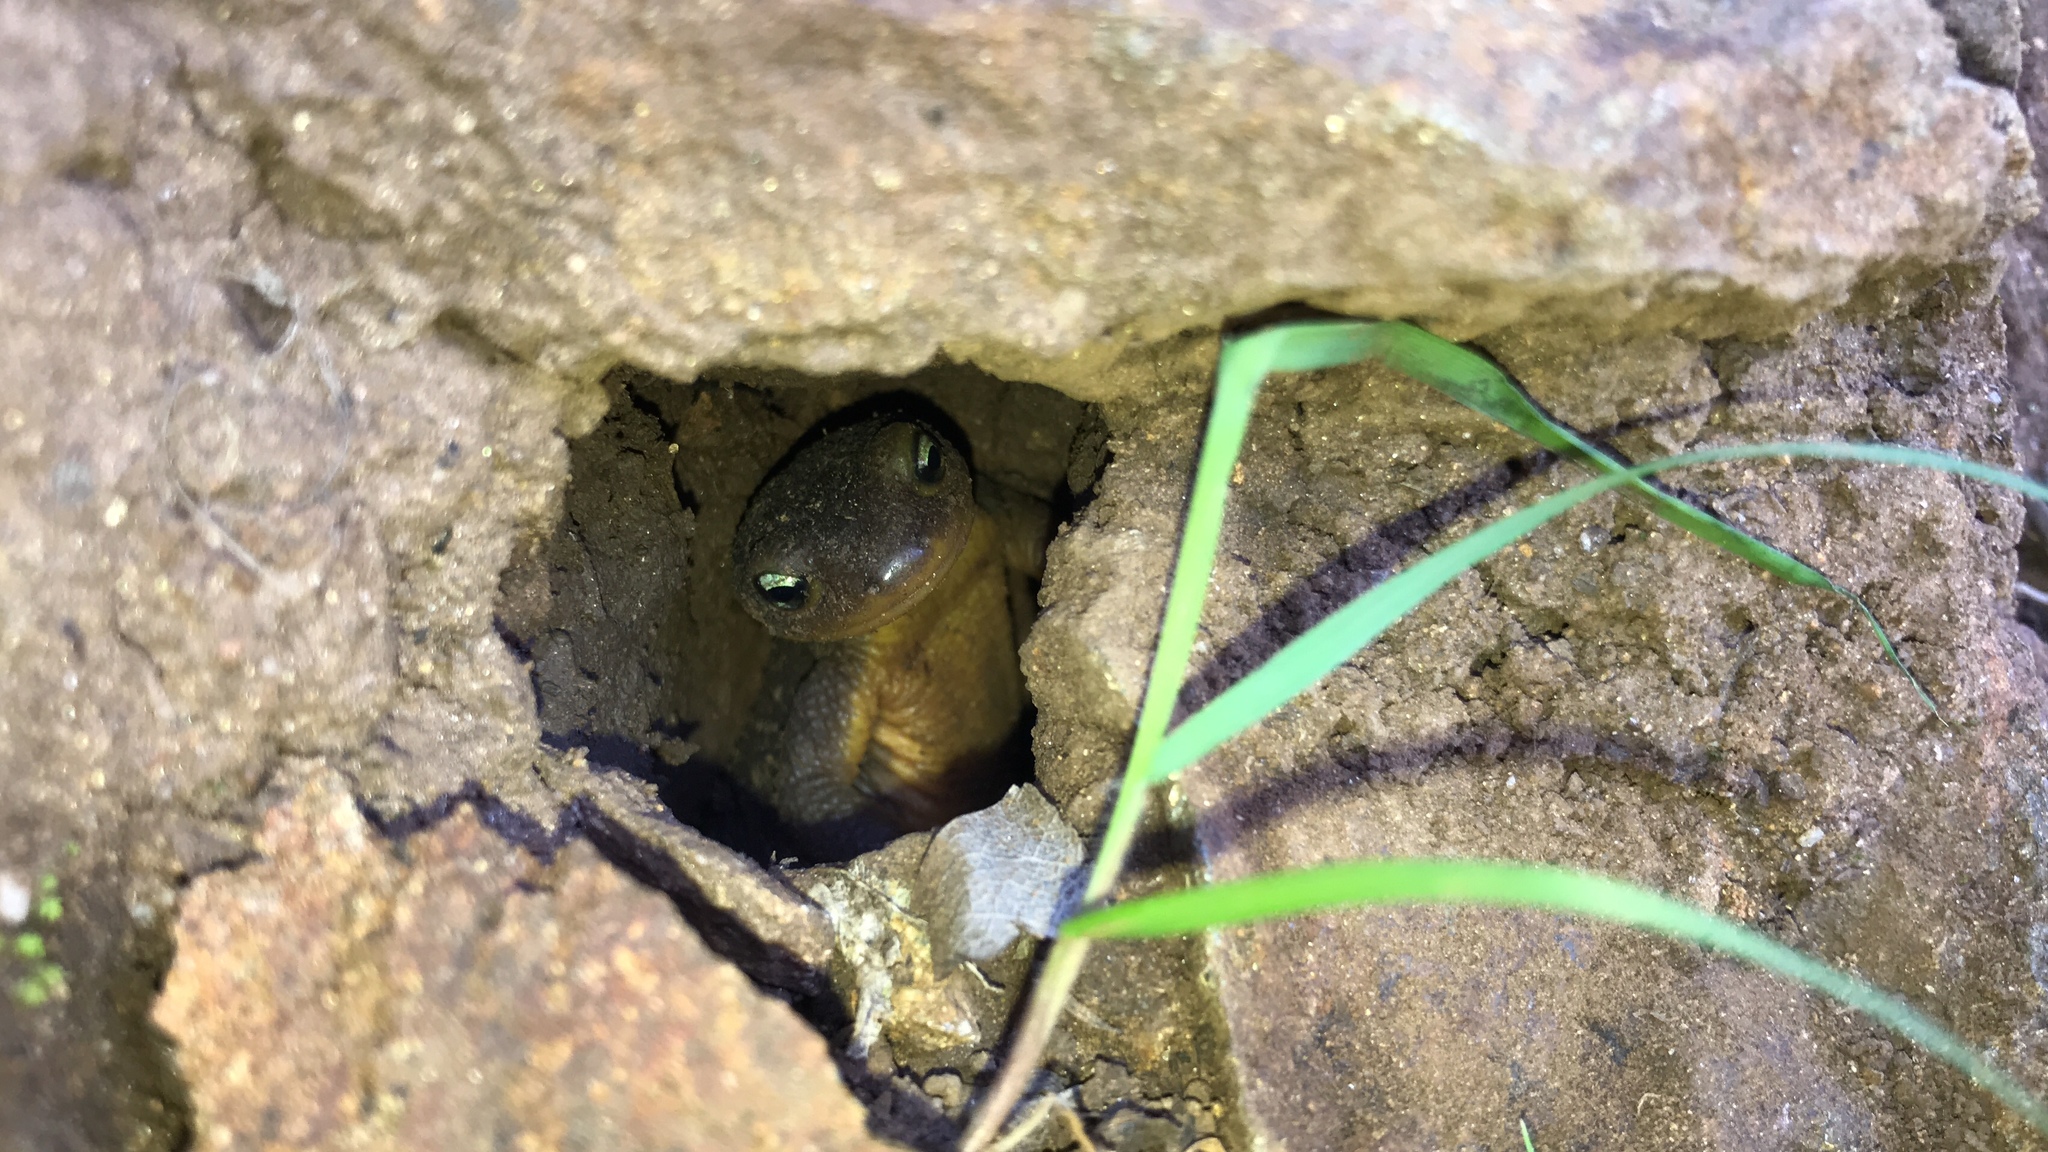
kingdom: Animalia
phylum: Chordata
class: Amphibia
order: Caudata
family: Salamandridae
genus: Taricha
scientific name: Taricha granulosa
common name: Roughskin newt
